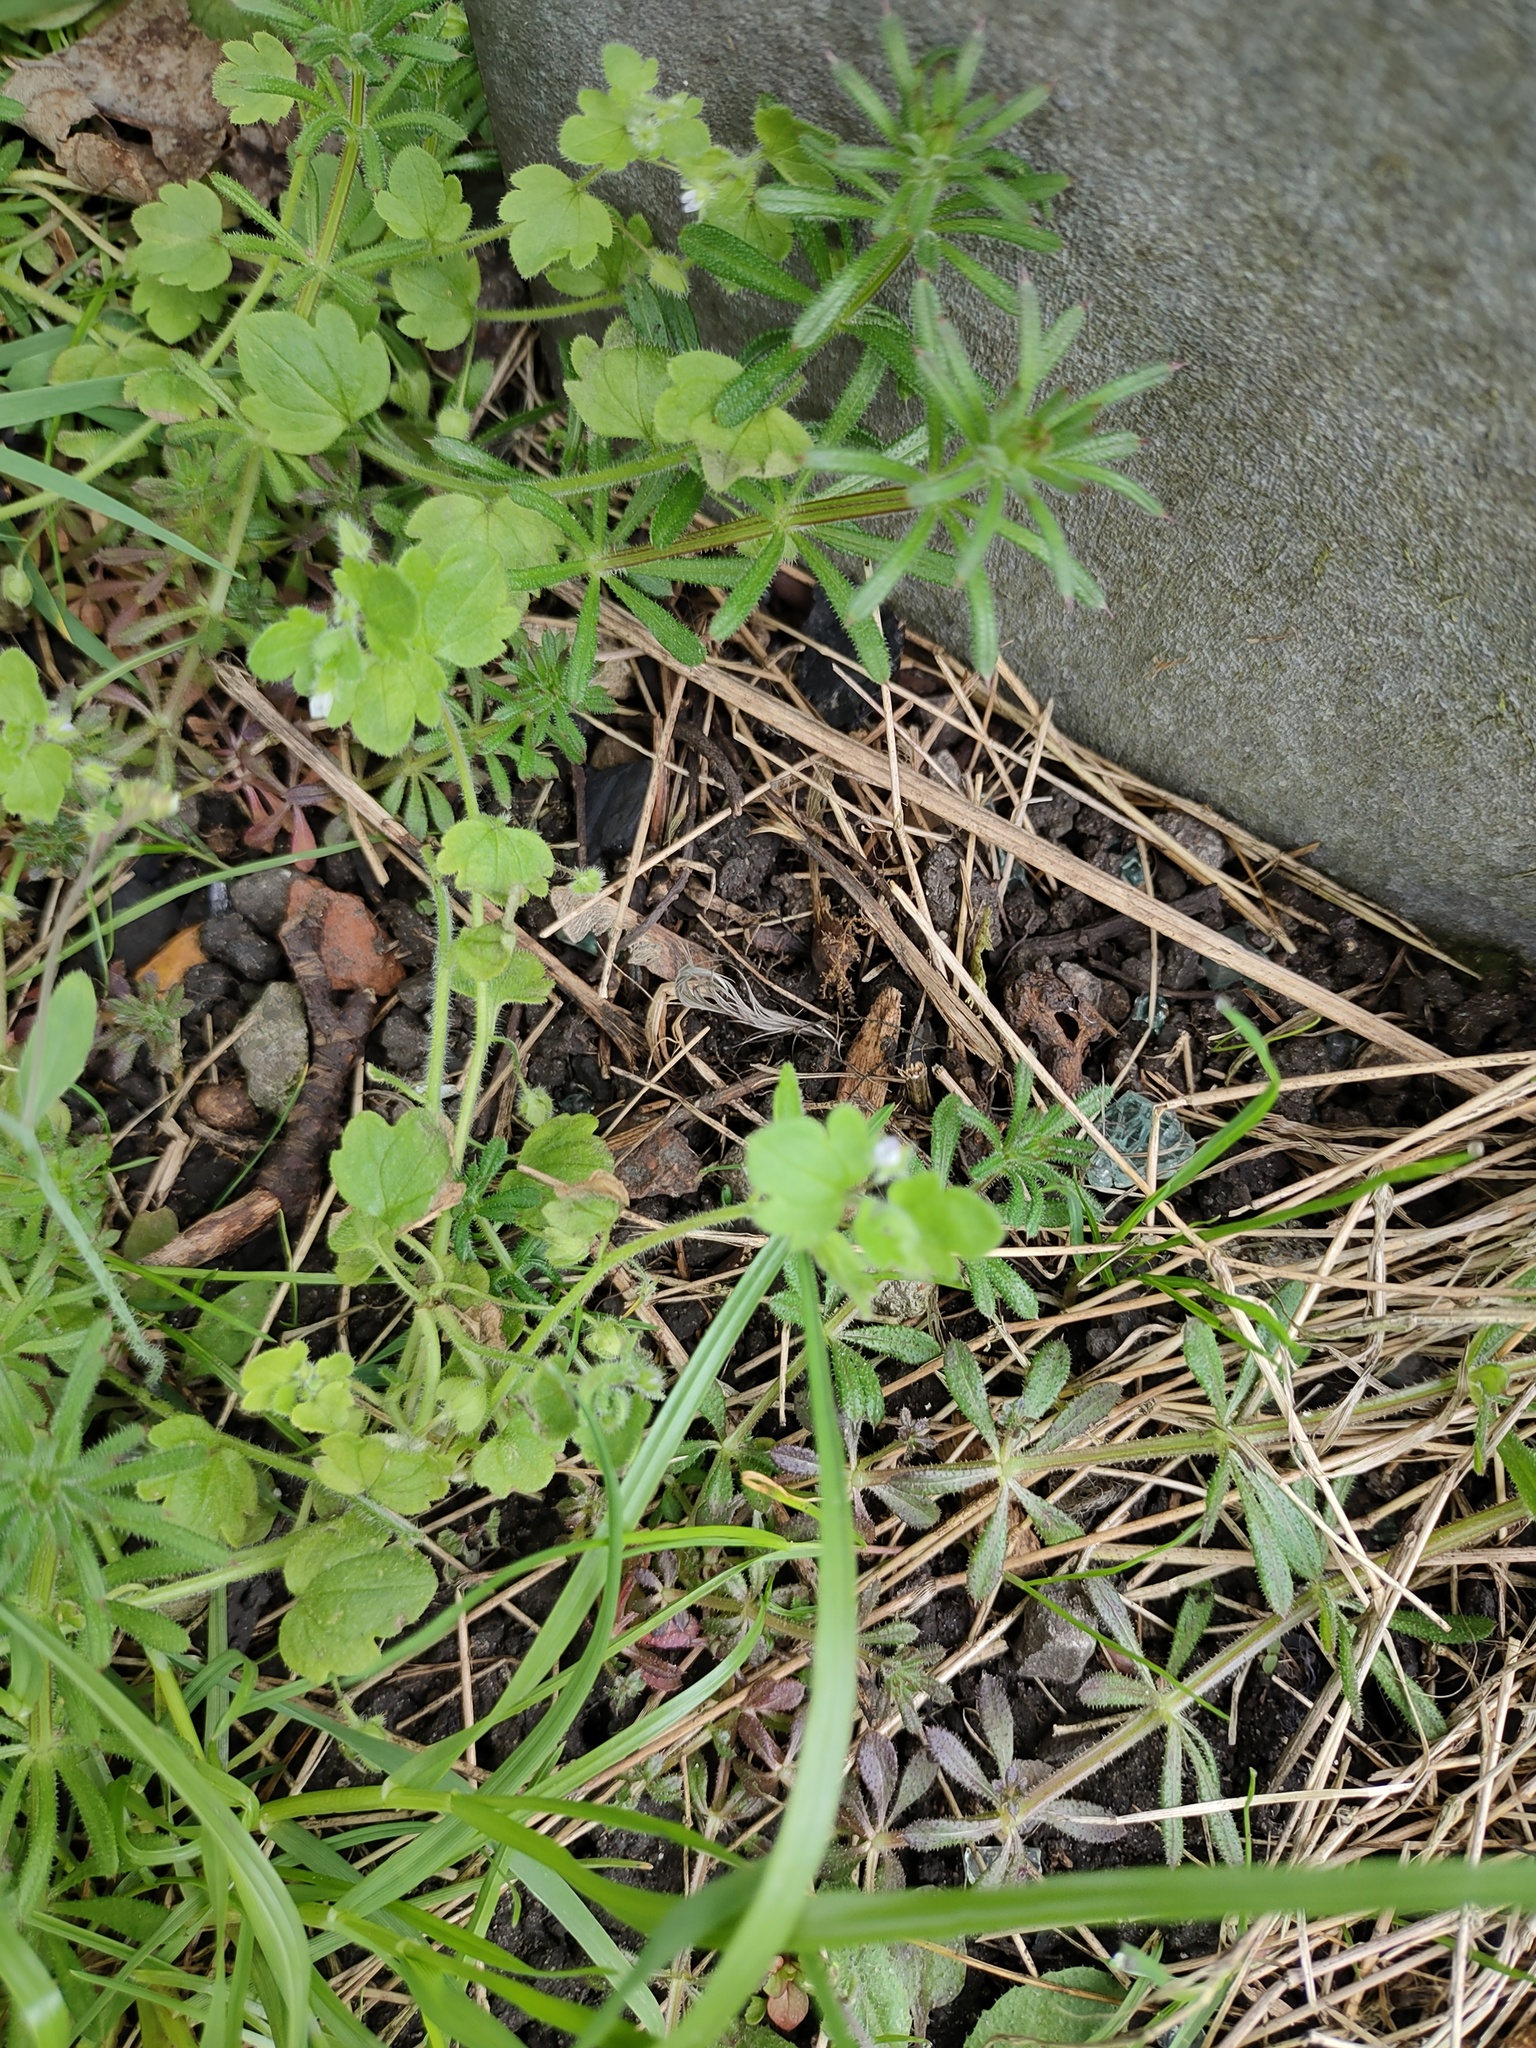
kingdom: Plantae
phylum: Tracheophyta
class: Magnoliopsida
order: Lamiales
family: Plantaginaceae
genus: Veronica
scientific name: Veronica sublobata
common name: False ivy-leaved speedwell
